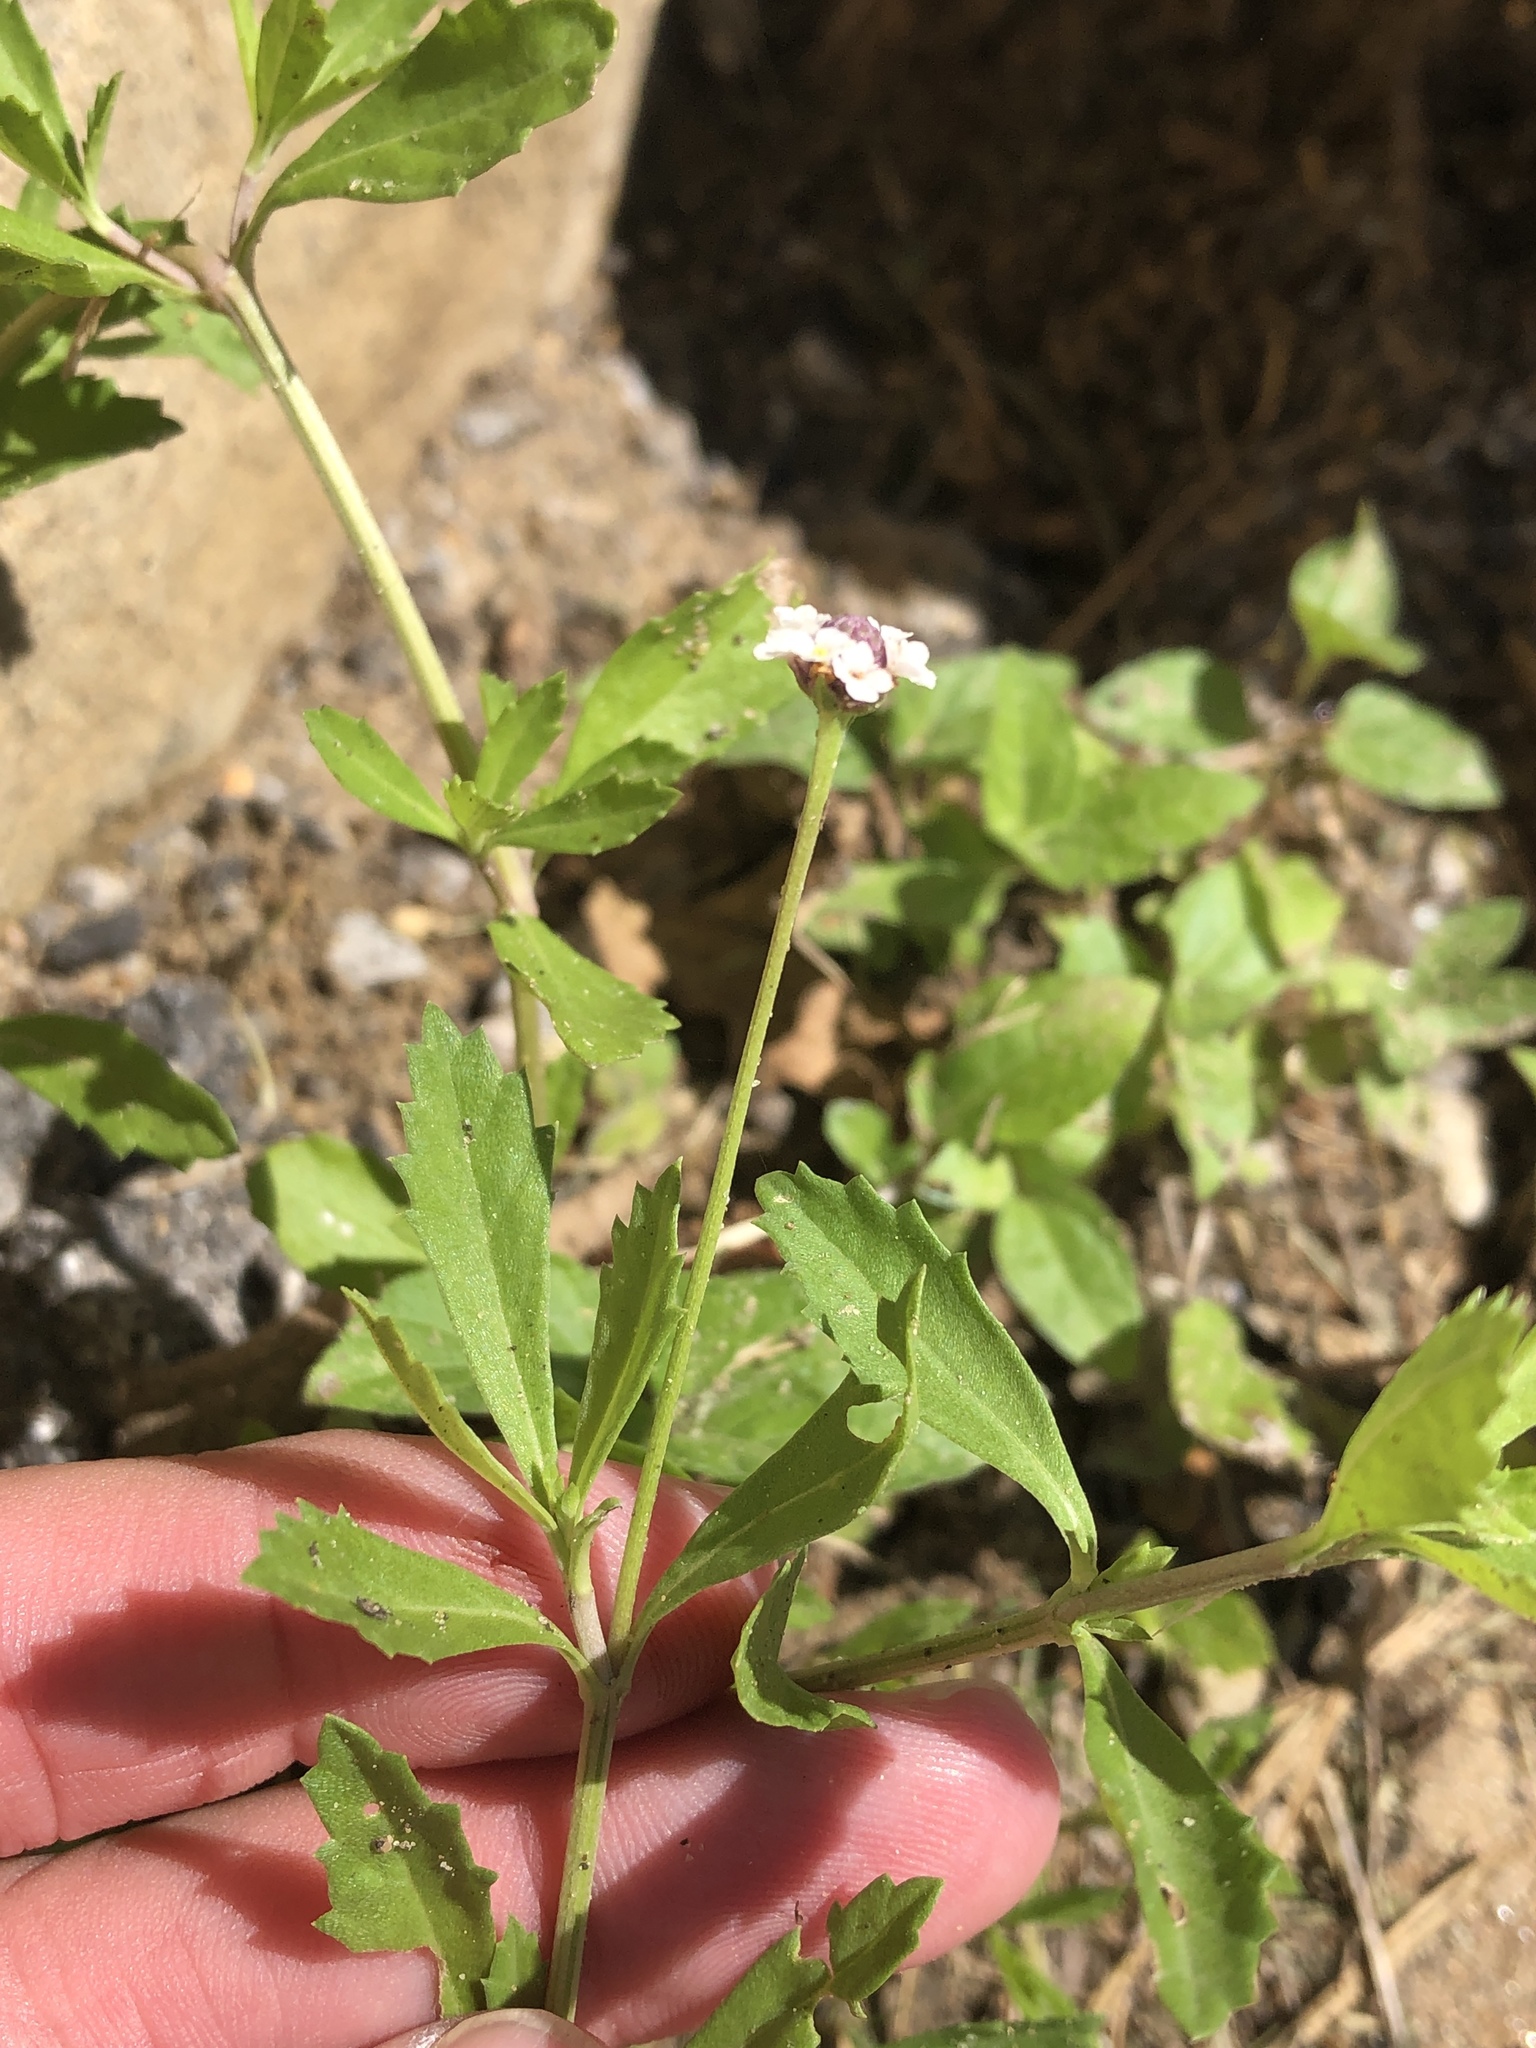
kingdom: Plantae
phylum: Tracheophyta
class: Magnoliopsida
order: Lamiales
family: Verbenaceae
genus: Phyla
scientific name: Phyla nodiflora
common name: Frogfruit
